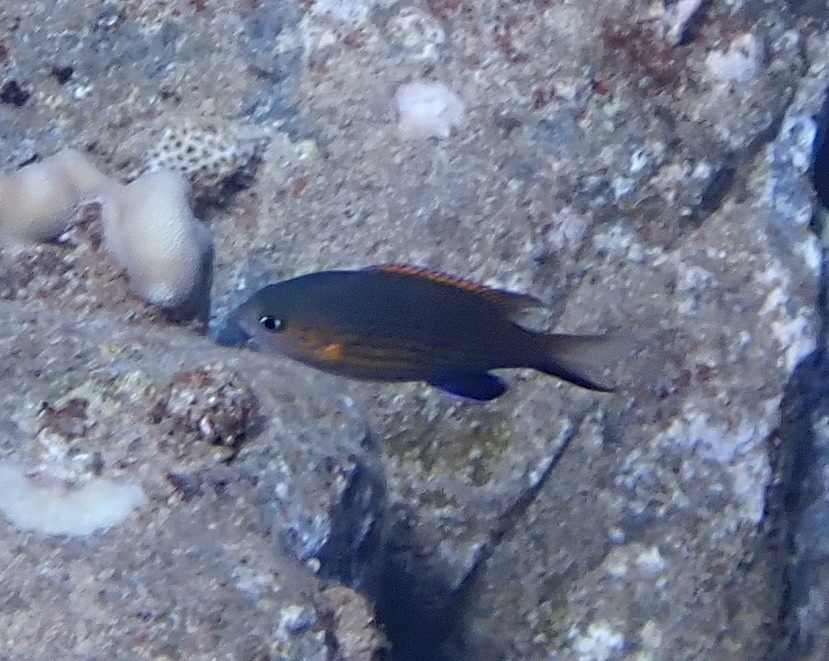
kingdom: Animalia
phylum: Chordata
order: Perciformes
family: Pomacentridae
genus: Chromis
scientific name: Chromis vanderbilti
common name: Vanderbilt's chromis
